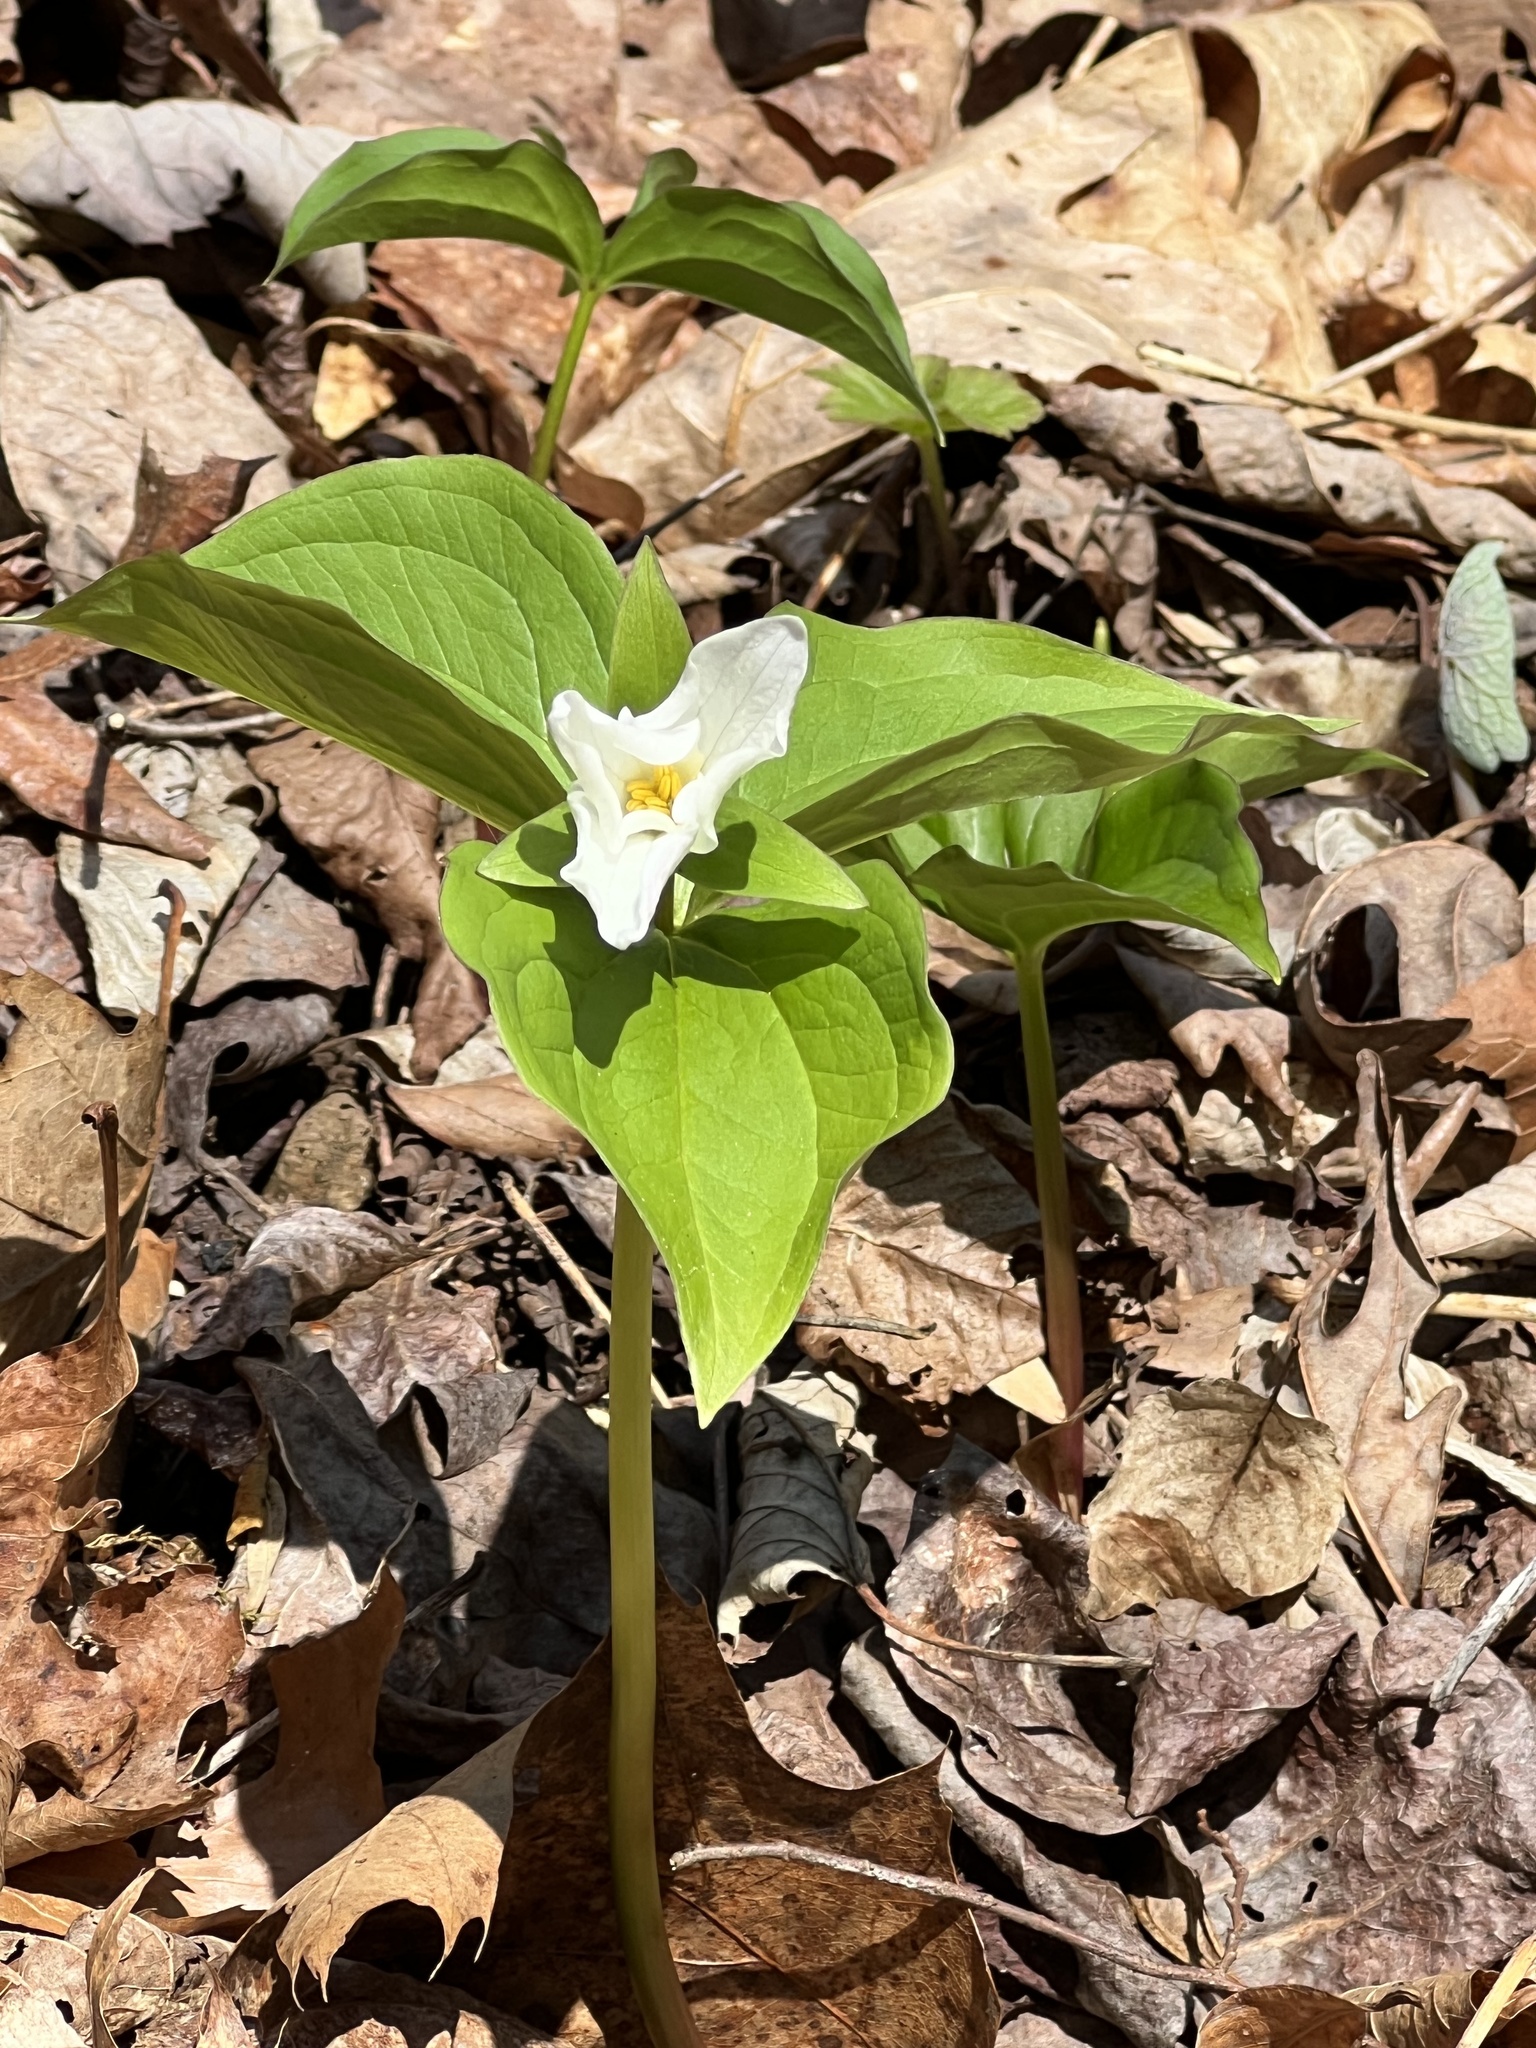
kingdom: Plantae
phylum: Tracheophyta
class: Liliopsida
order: Liliales
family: Melanthiaceae
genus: Trillium
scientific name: Trillium grandiflorum
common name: Great white trillium
